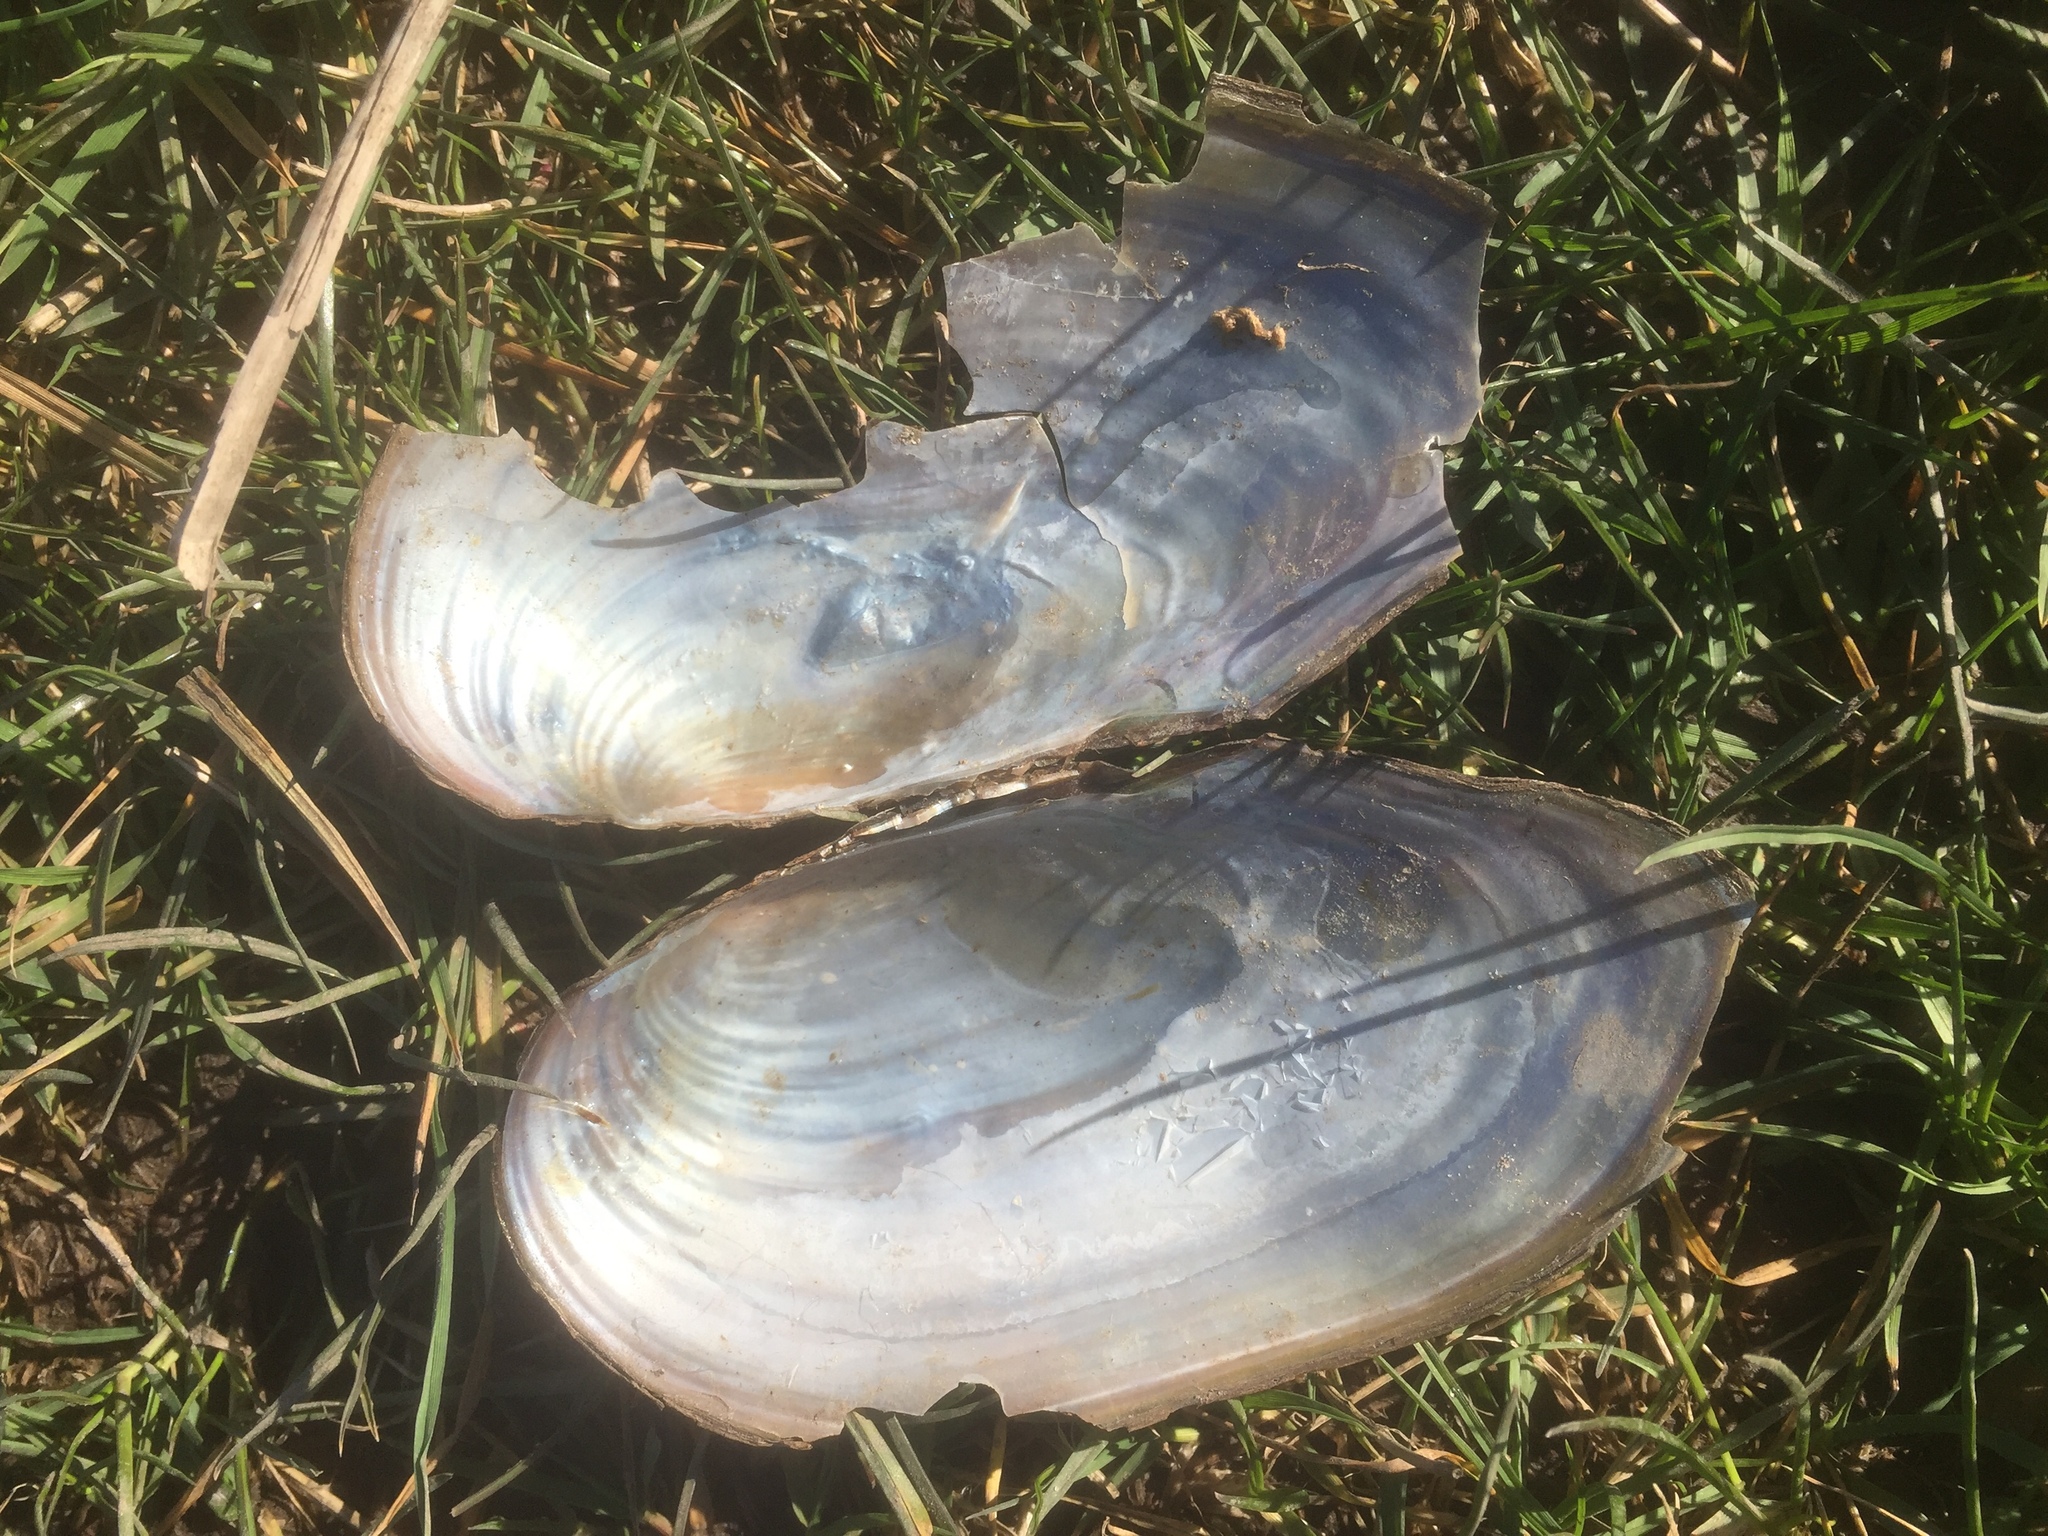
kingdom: Animalia
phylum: Mollusca
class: Bivalvia
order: Unionida
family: Unionidae
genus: Anodonta
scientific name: Anodonta cygnea
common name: Swan mussel
